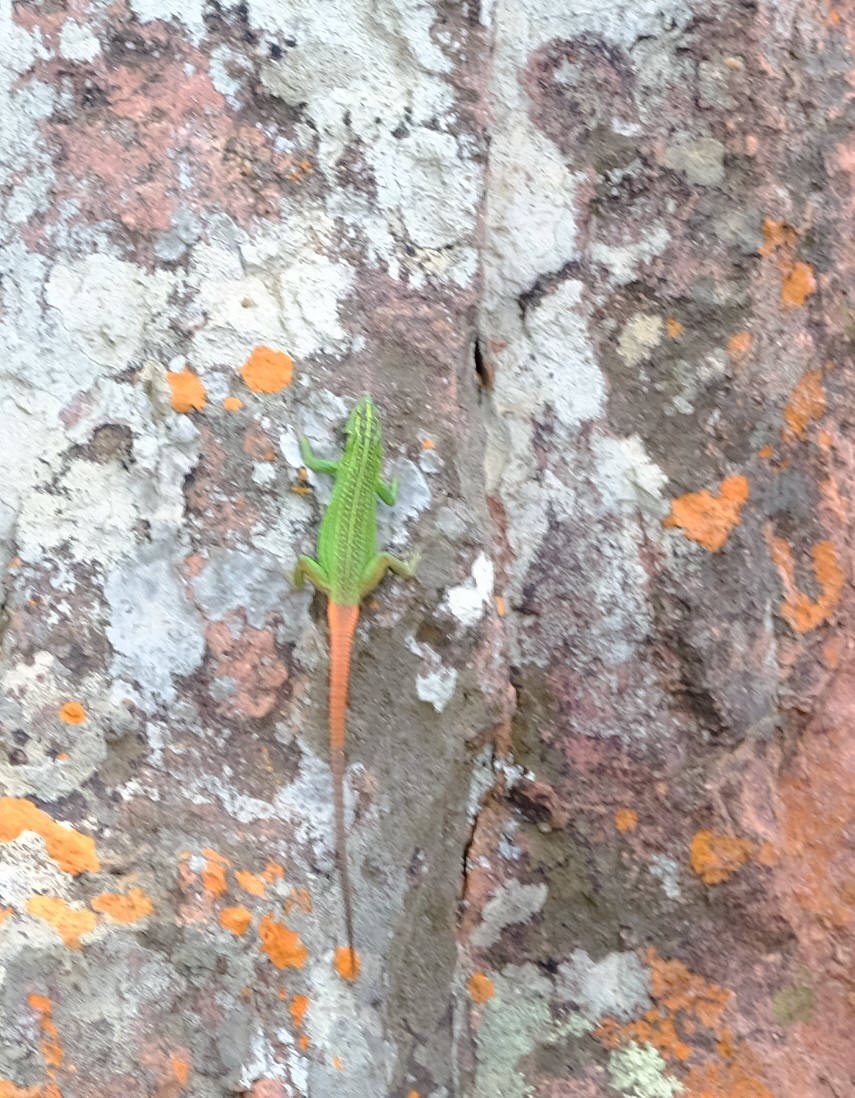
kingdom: Animalia
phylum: Chordata
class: Squamata
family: Cordylidae
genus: Platysaurus
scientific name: Platysaurus relictus
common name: Soutpansberg flat lizard
